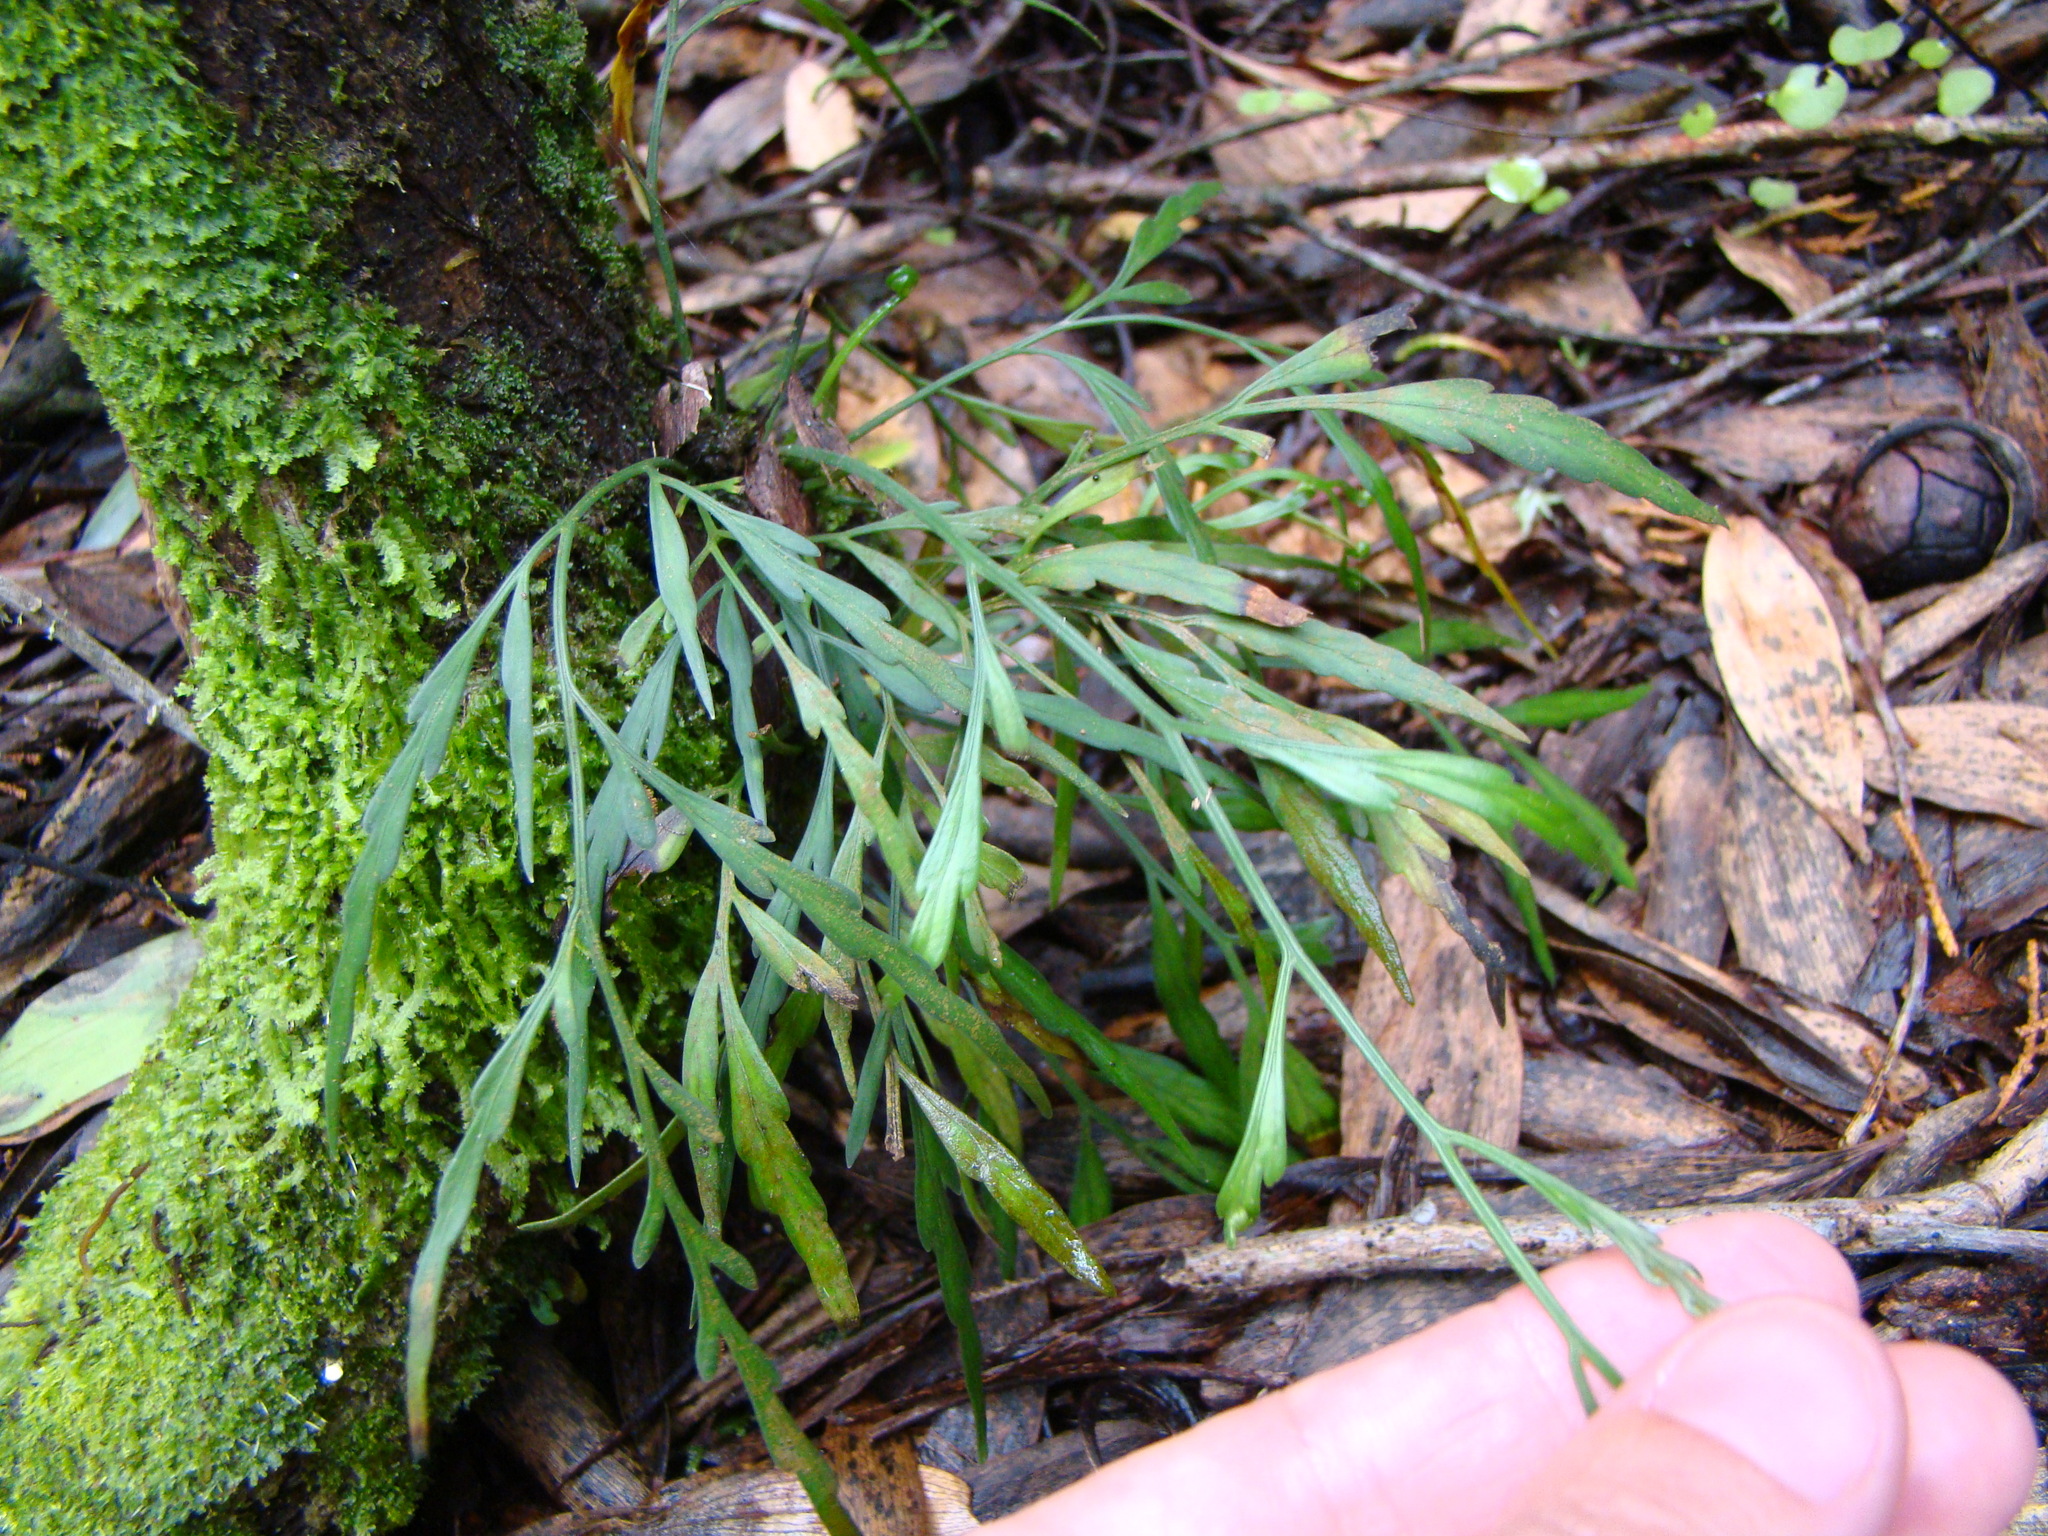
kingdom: Plantae
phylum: Tracheophyta
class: Polypodiopsida
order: Polypodiales
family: Aspleniaceae
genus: Asplenium
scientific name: Asplenium flaccidum
